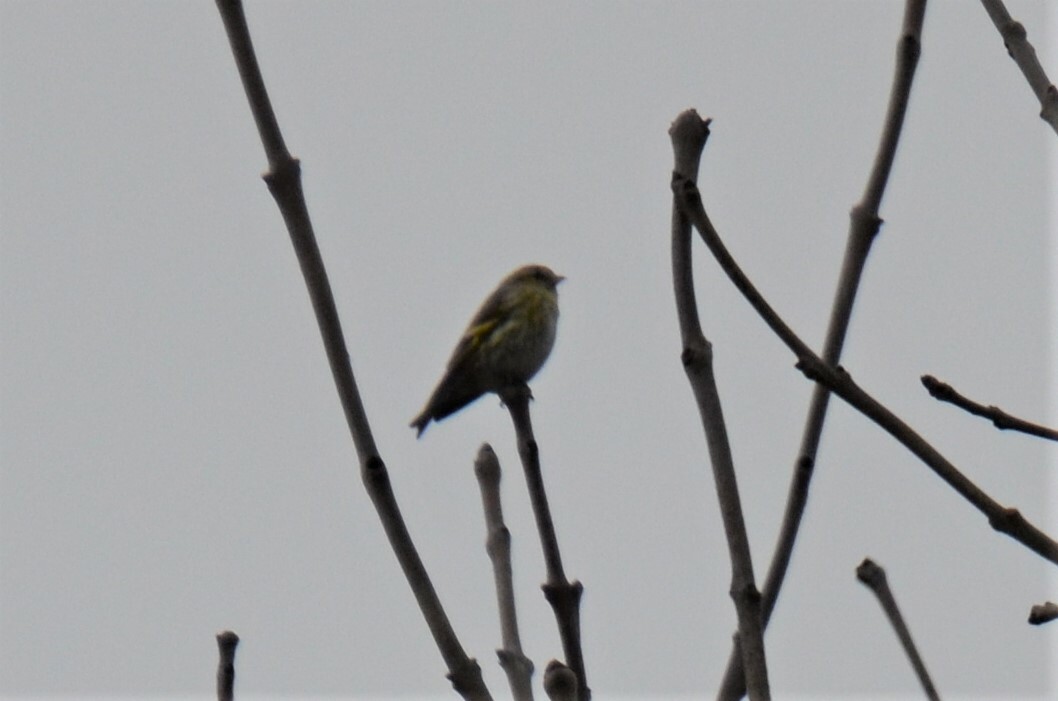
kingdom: Animalia
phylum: Chordata
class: Aves
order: Passeriformes
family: Fringillidae
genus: Spinus
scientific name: Spinus spinus
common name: Eurasian siskin
